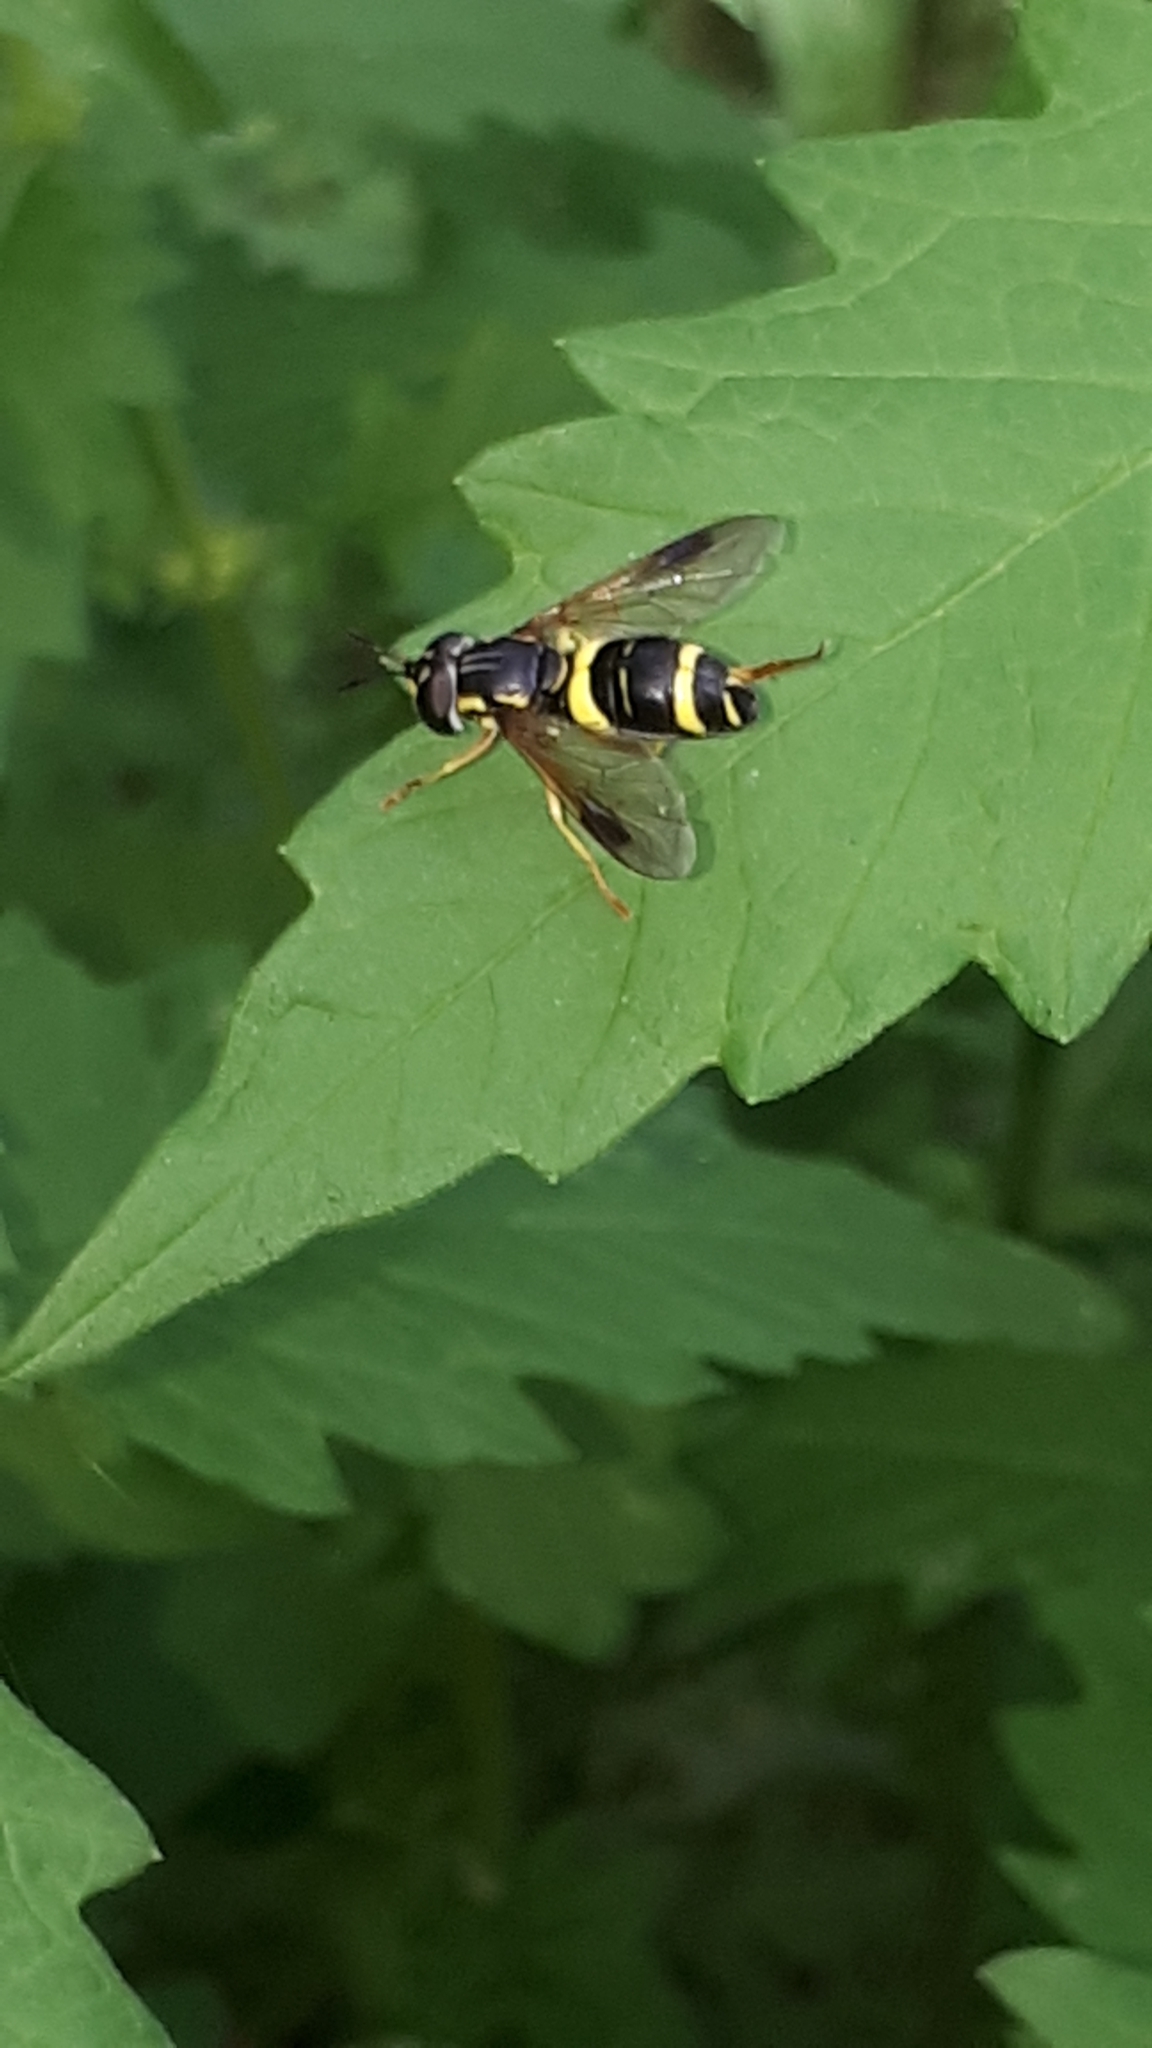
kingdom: Animalia
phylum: Arthropoda
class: Insecta
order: Diptera
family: Syrphidae
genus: Chrysotoxum
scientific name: Chrysotoxum bicincta
